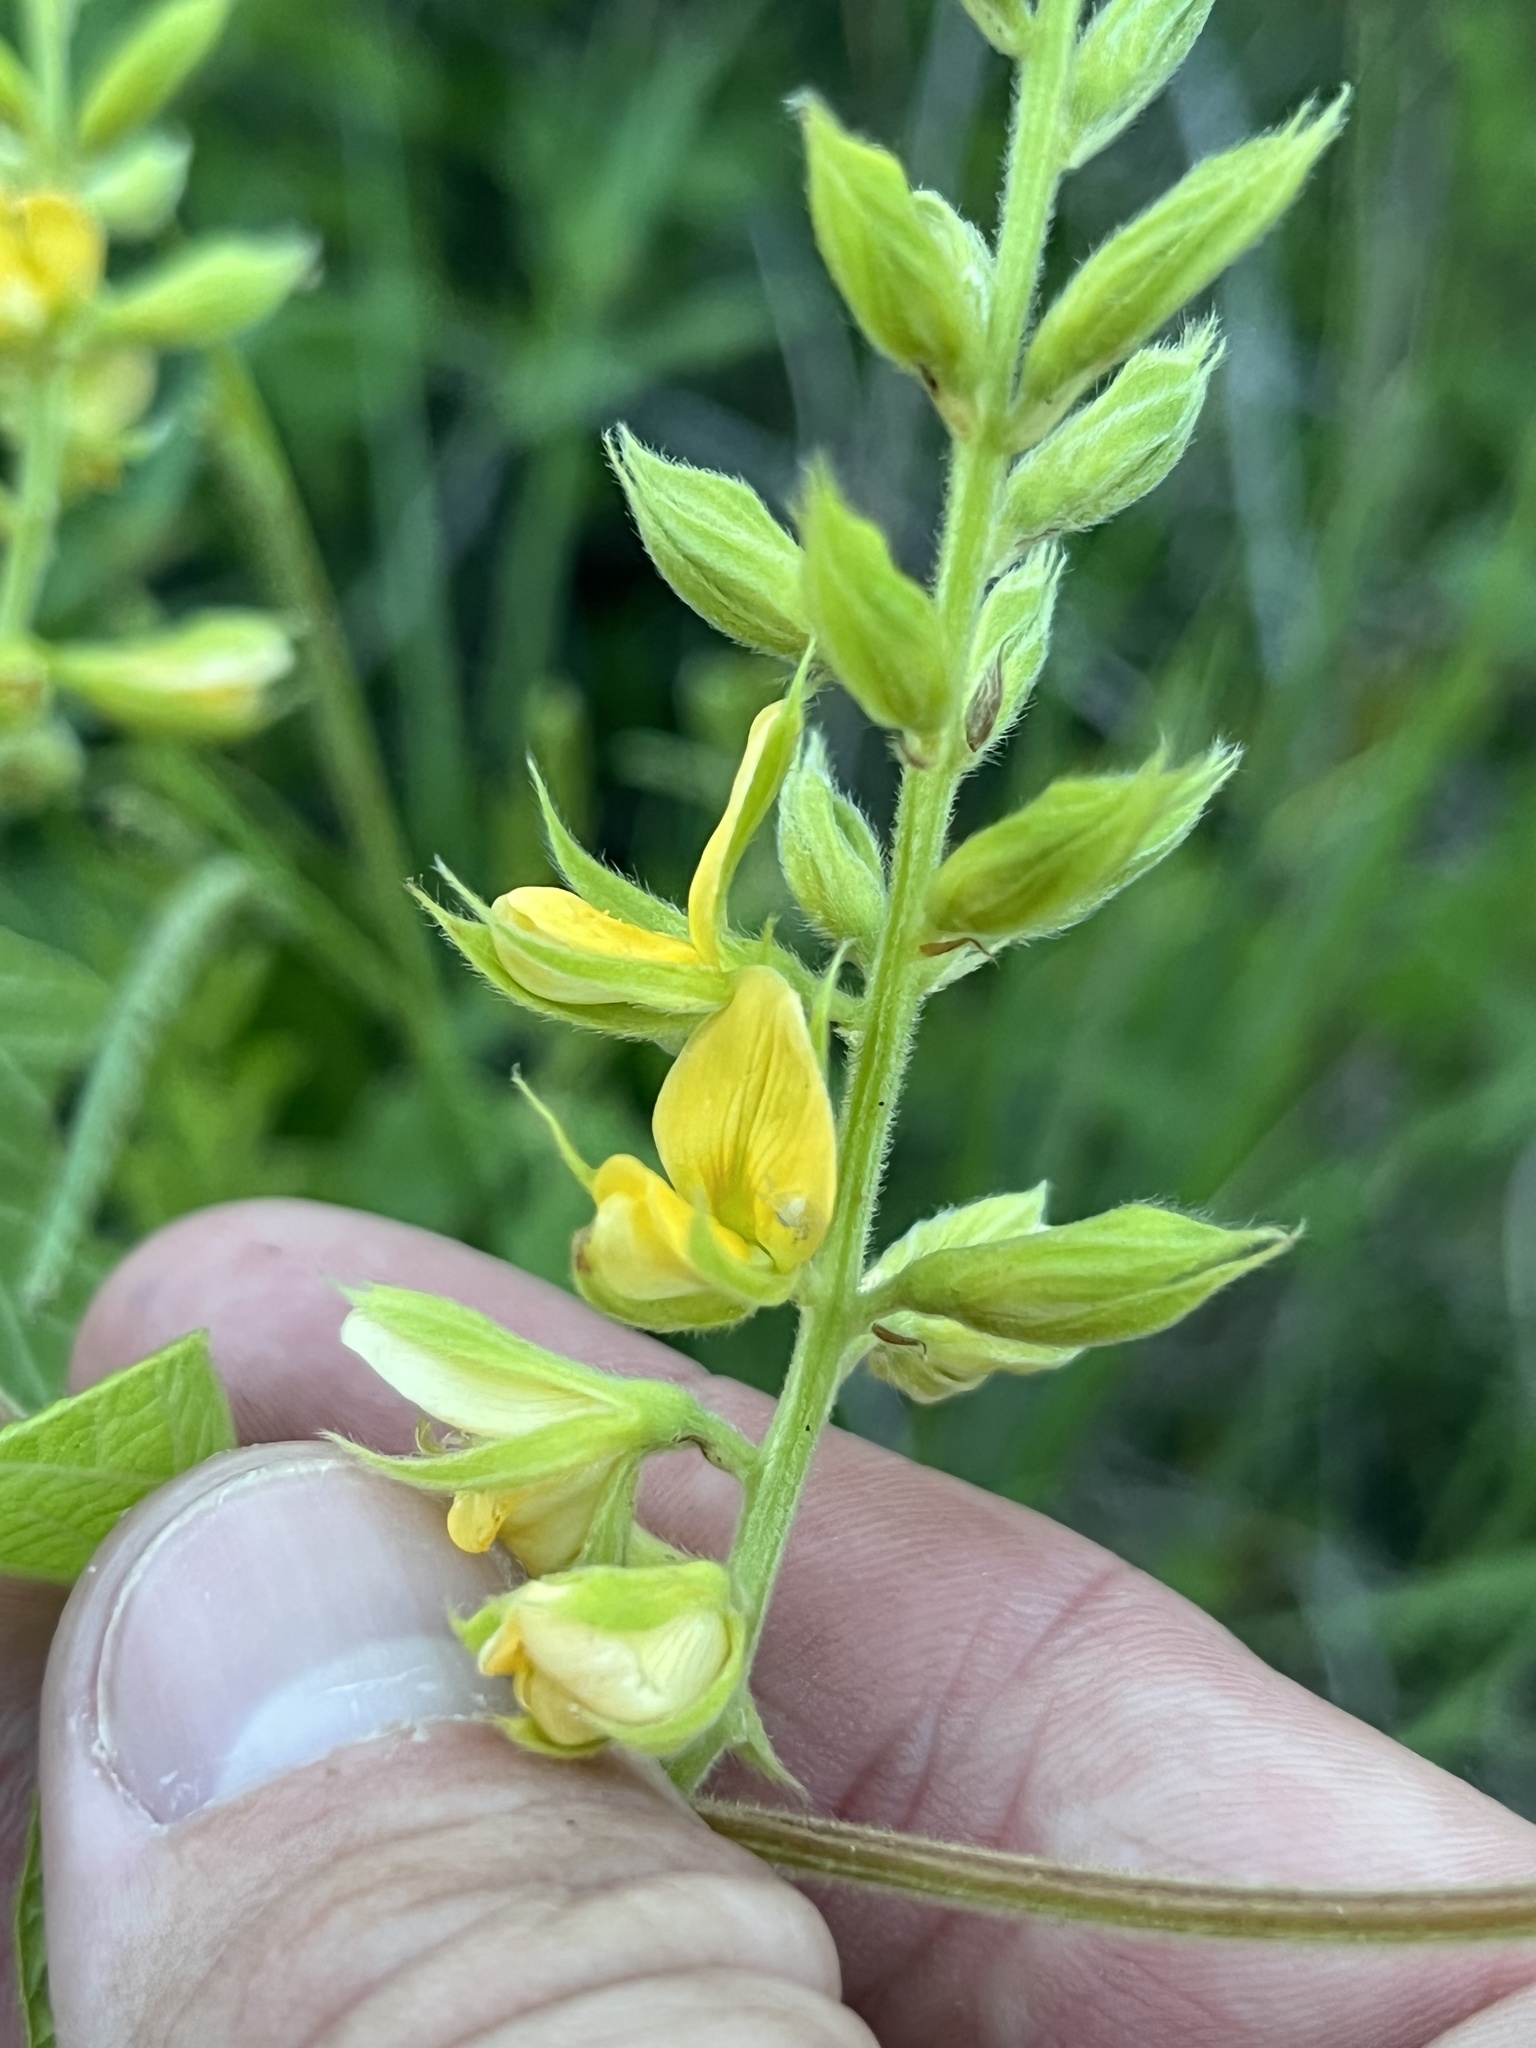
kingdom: Plantae
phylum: Tracheophyta
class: Magnoliopsida
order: Fabales
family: Fabaceae
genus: Rhynchosia
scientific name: Rhynchosia latifolia
